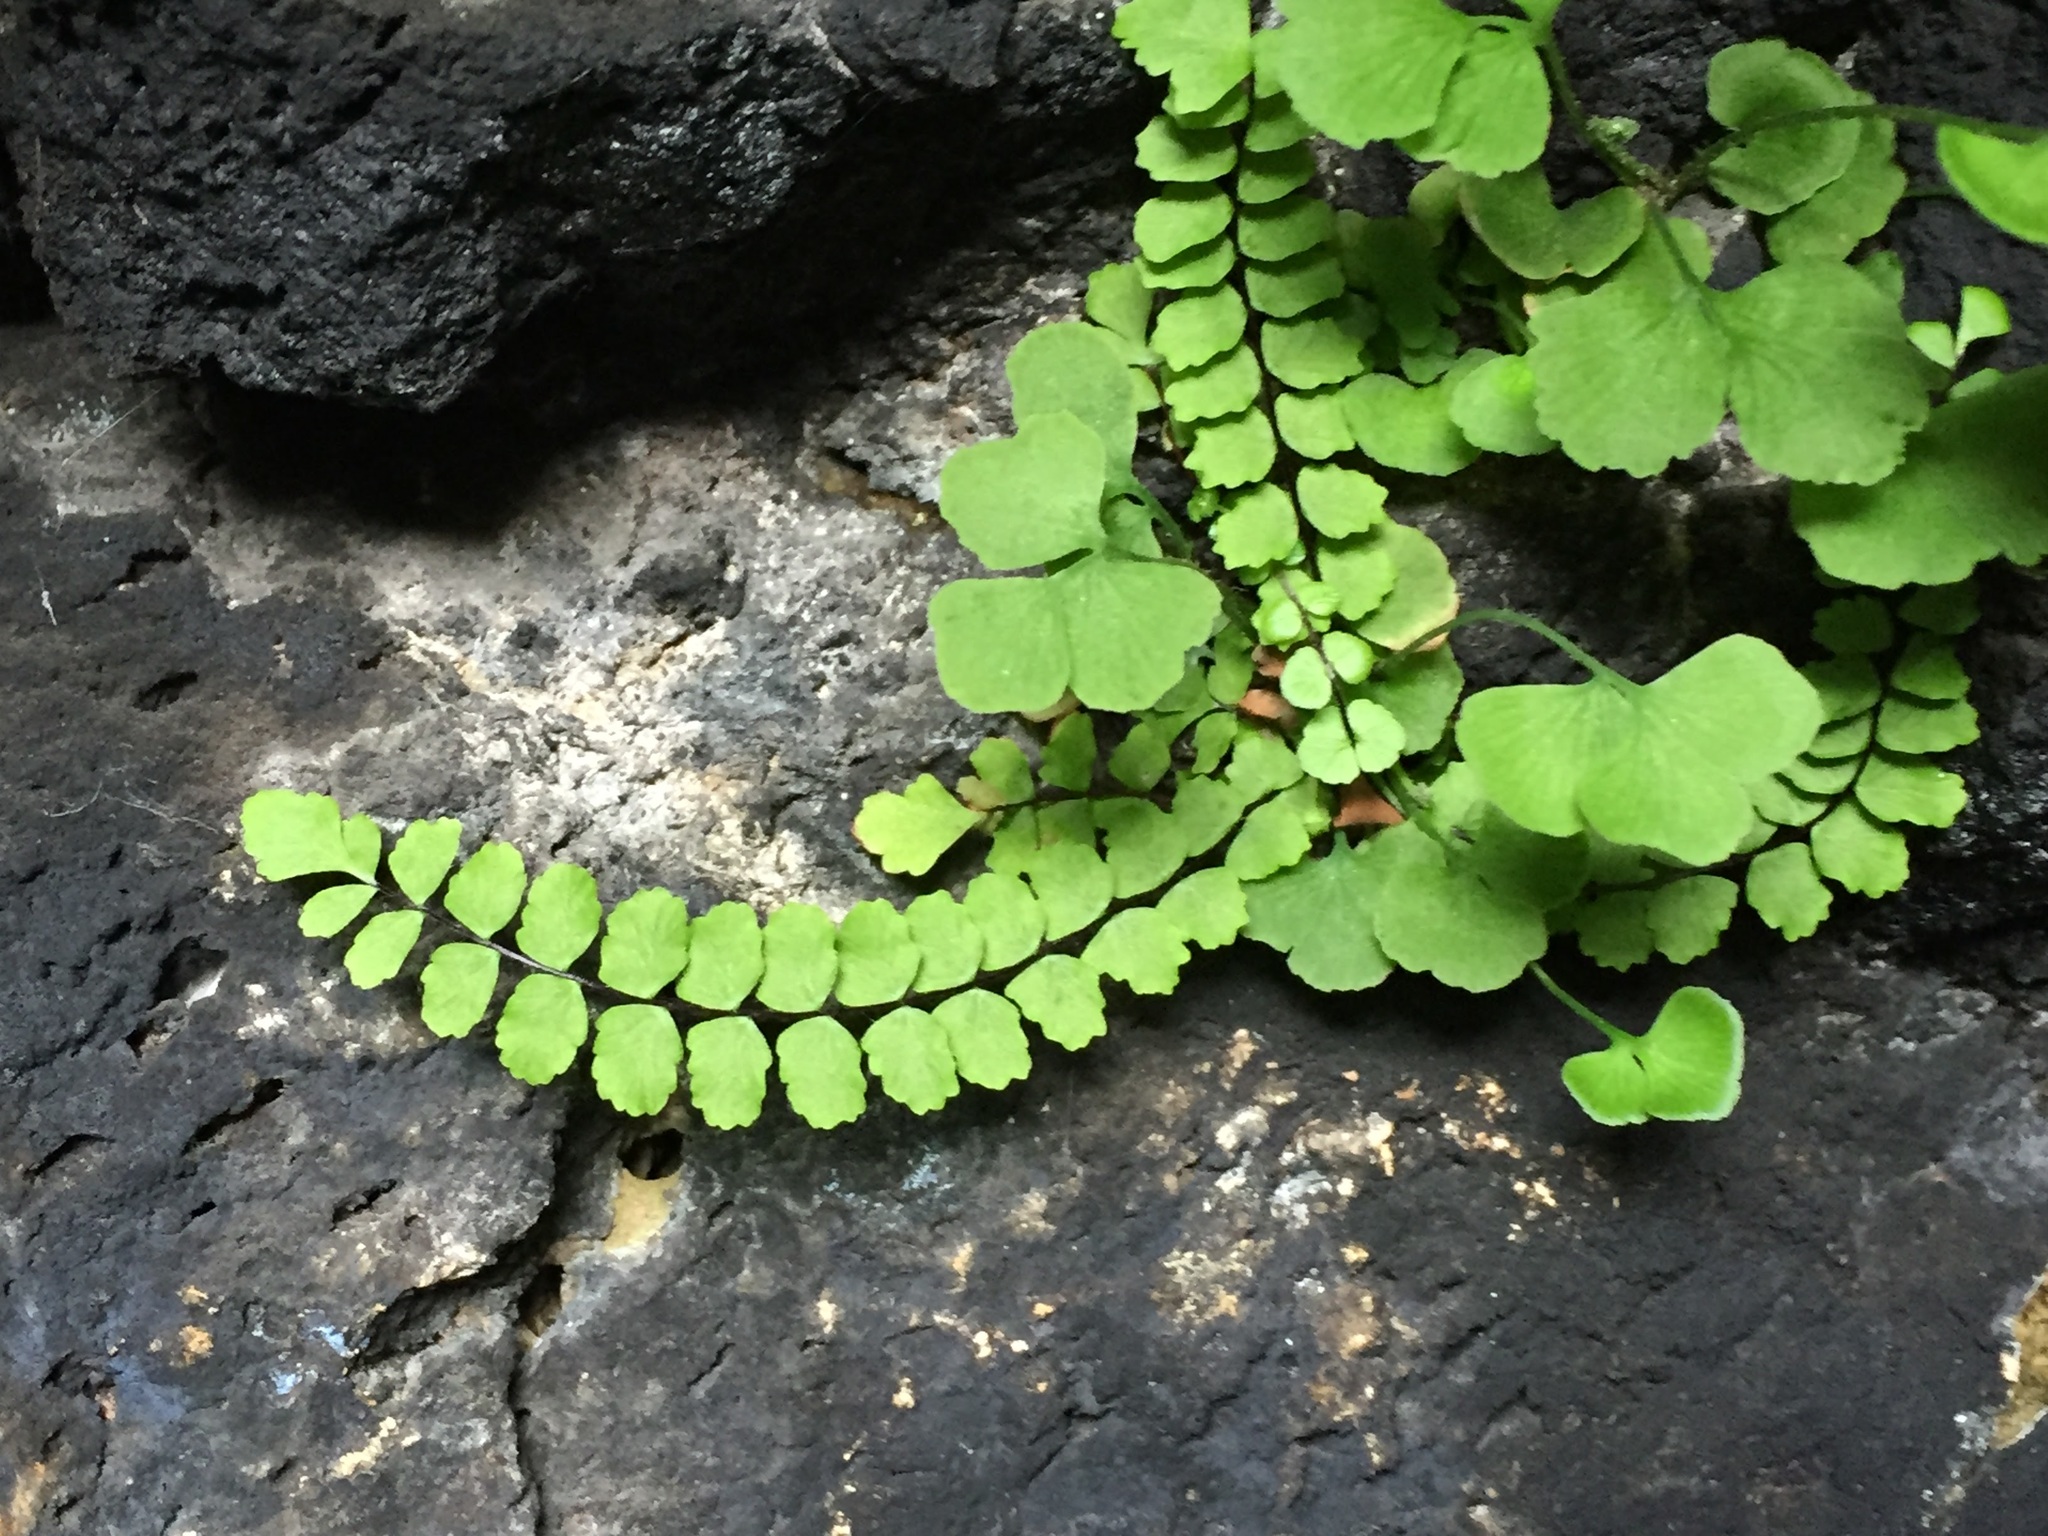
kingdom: Plantae
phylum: Tracheophyta
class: Polypodiopsida
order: Polypodiales
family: Aspleniaceae
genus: Asplenium
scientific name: Asplenium trichomanes
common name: Maidenhair spleenwort
